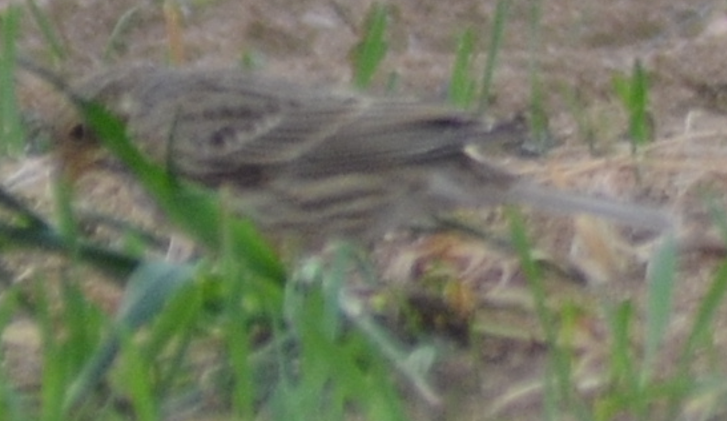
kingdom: Animalia
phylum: Chordata
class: Aves
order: Passeriformes
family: Emberizidae
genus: Emberiza
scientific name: Emberiza calandra
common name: Corn bunting
